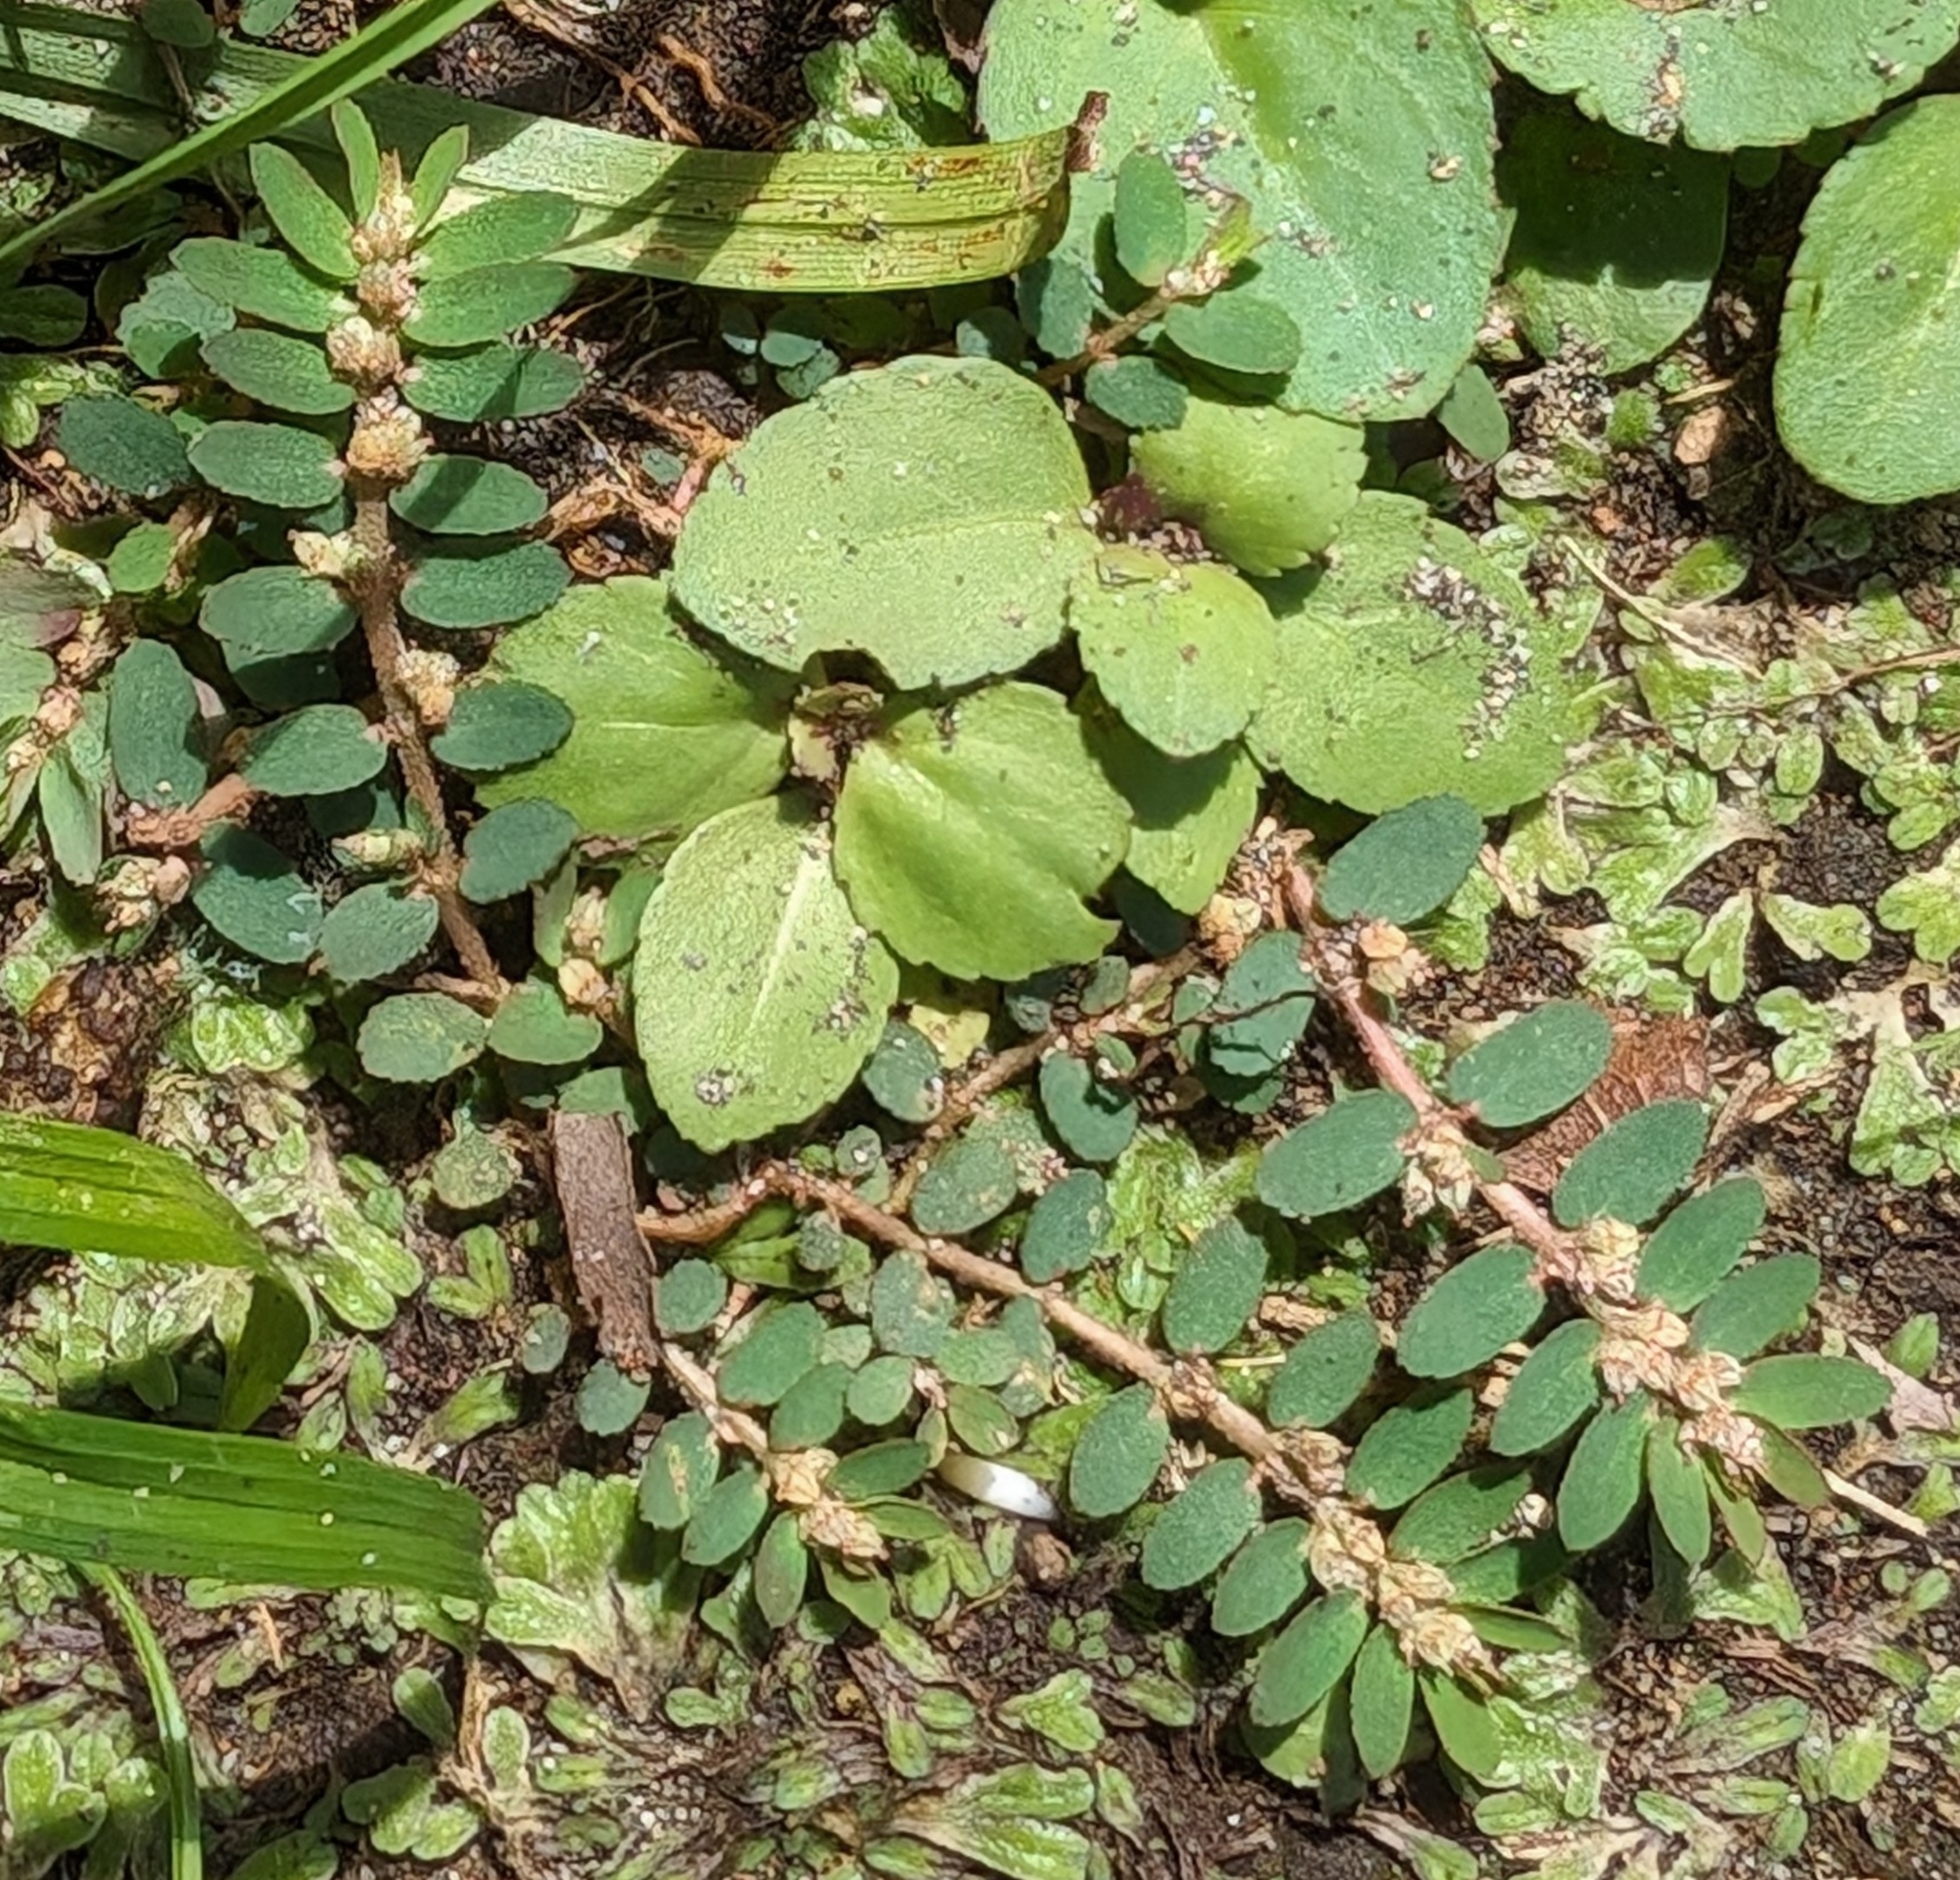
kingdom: Plantae
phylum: Tracheophyta
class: Magnoliopsida
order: Malpighiales
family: Euphorbiaceae
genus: Euphorbia
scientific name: Euphorbia thymifolia
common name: Gulf sandmat
